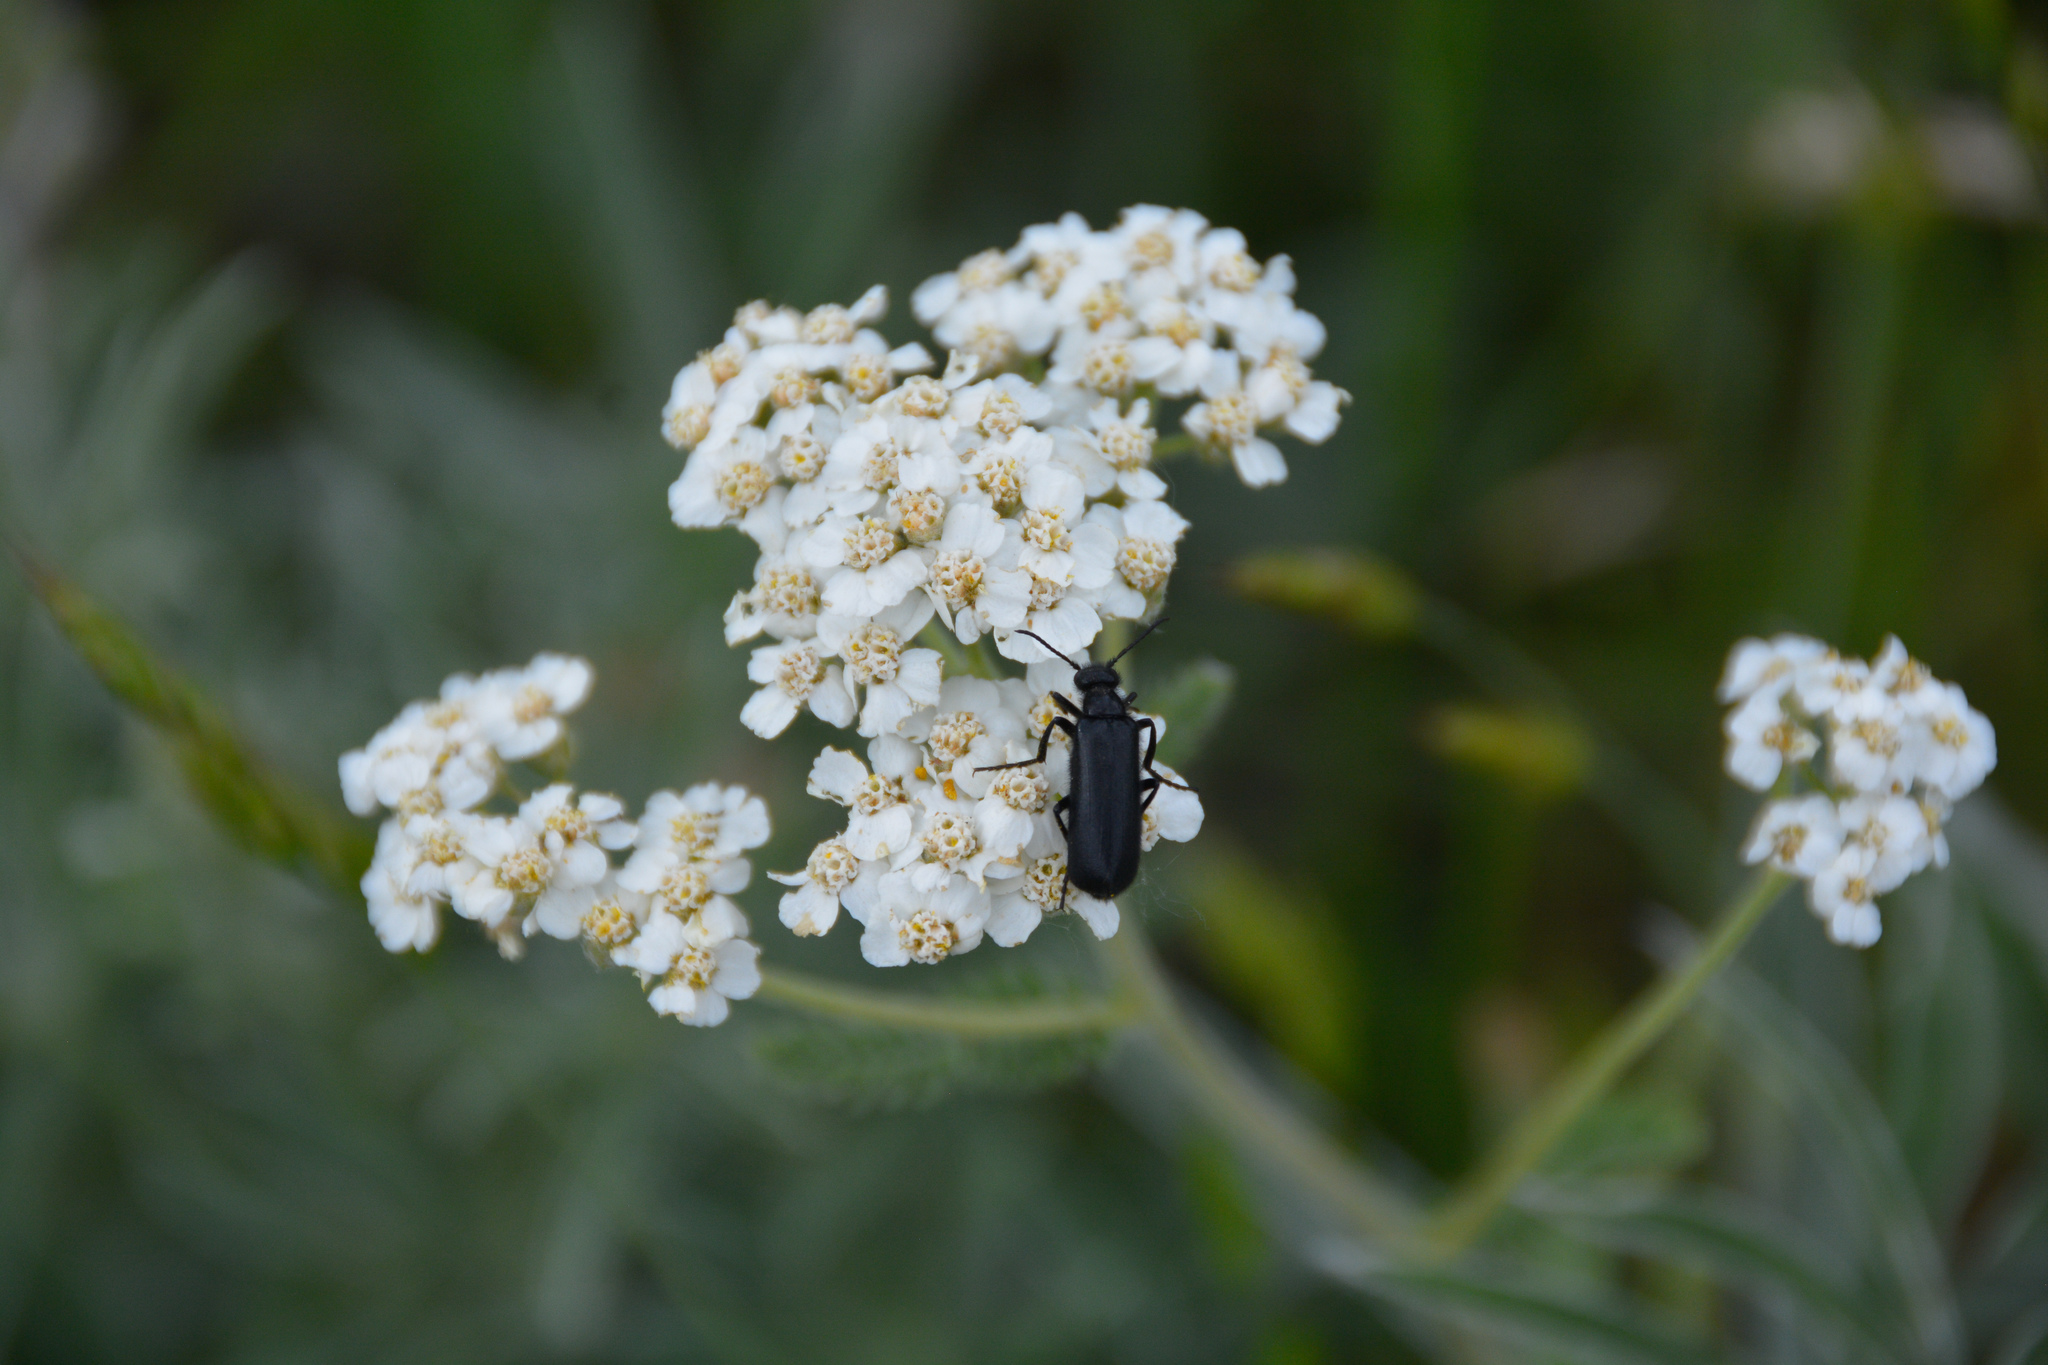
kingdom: Animalia
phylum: Arthropoda
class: Insecta
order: Coleoptera
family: Meloidae
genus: Epicauta
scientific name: Epicauta puncticollis
